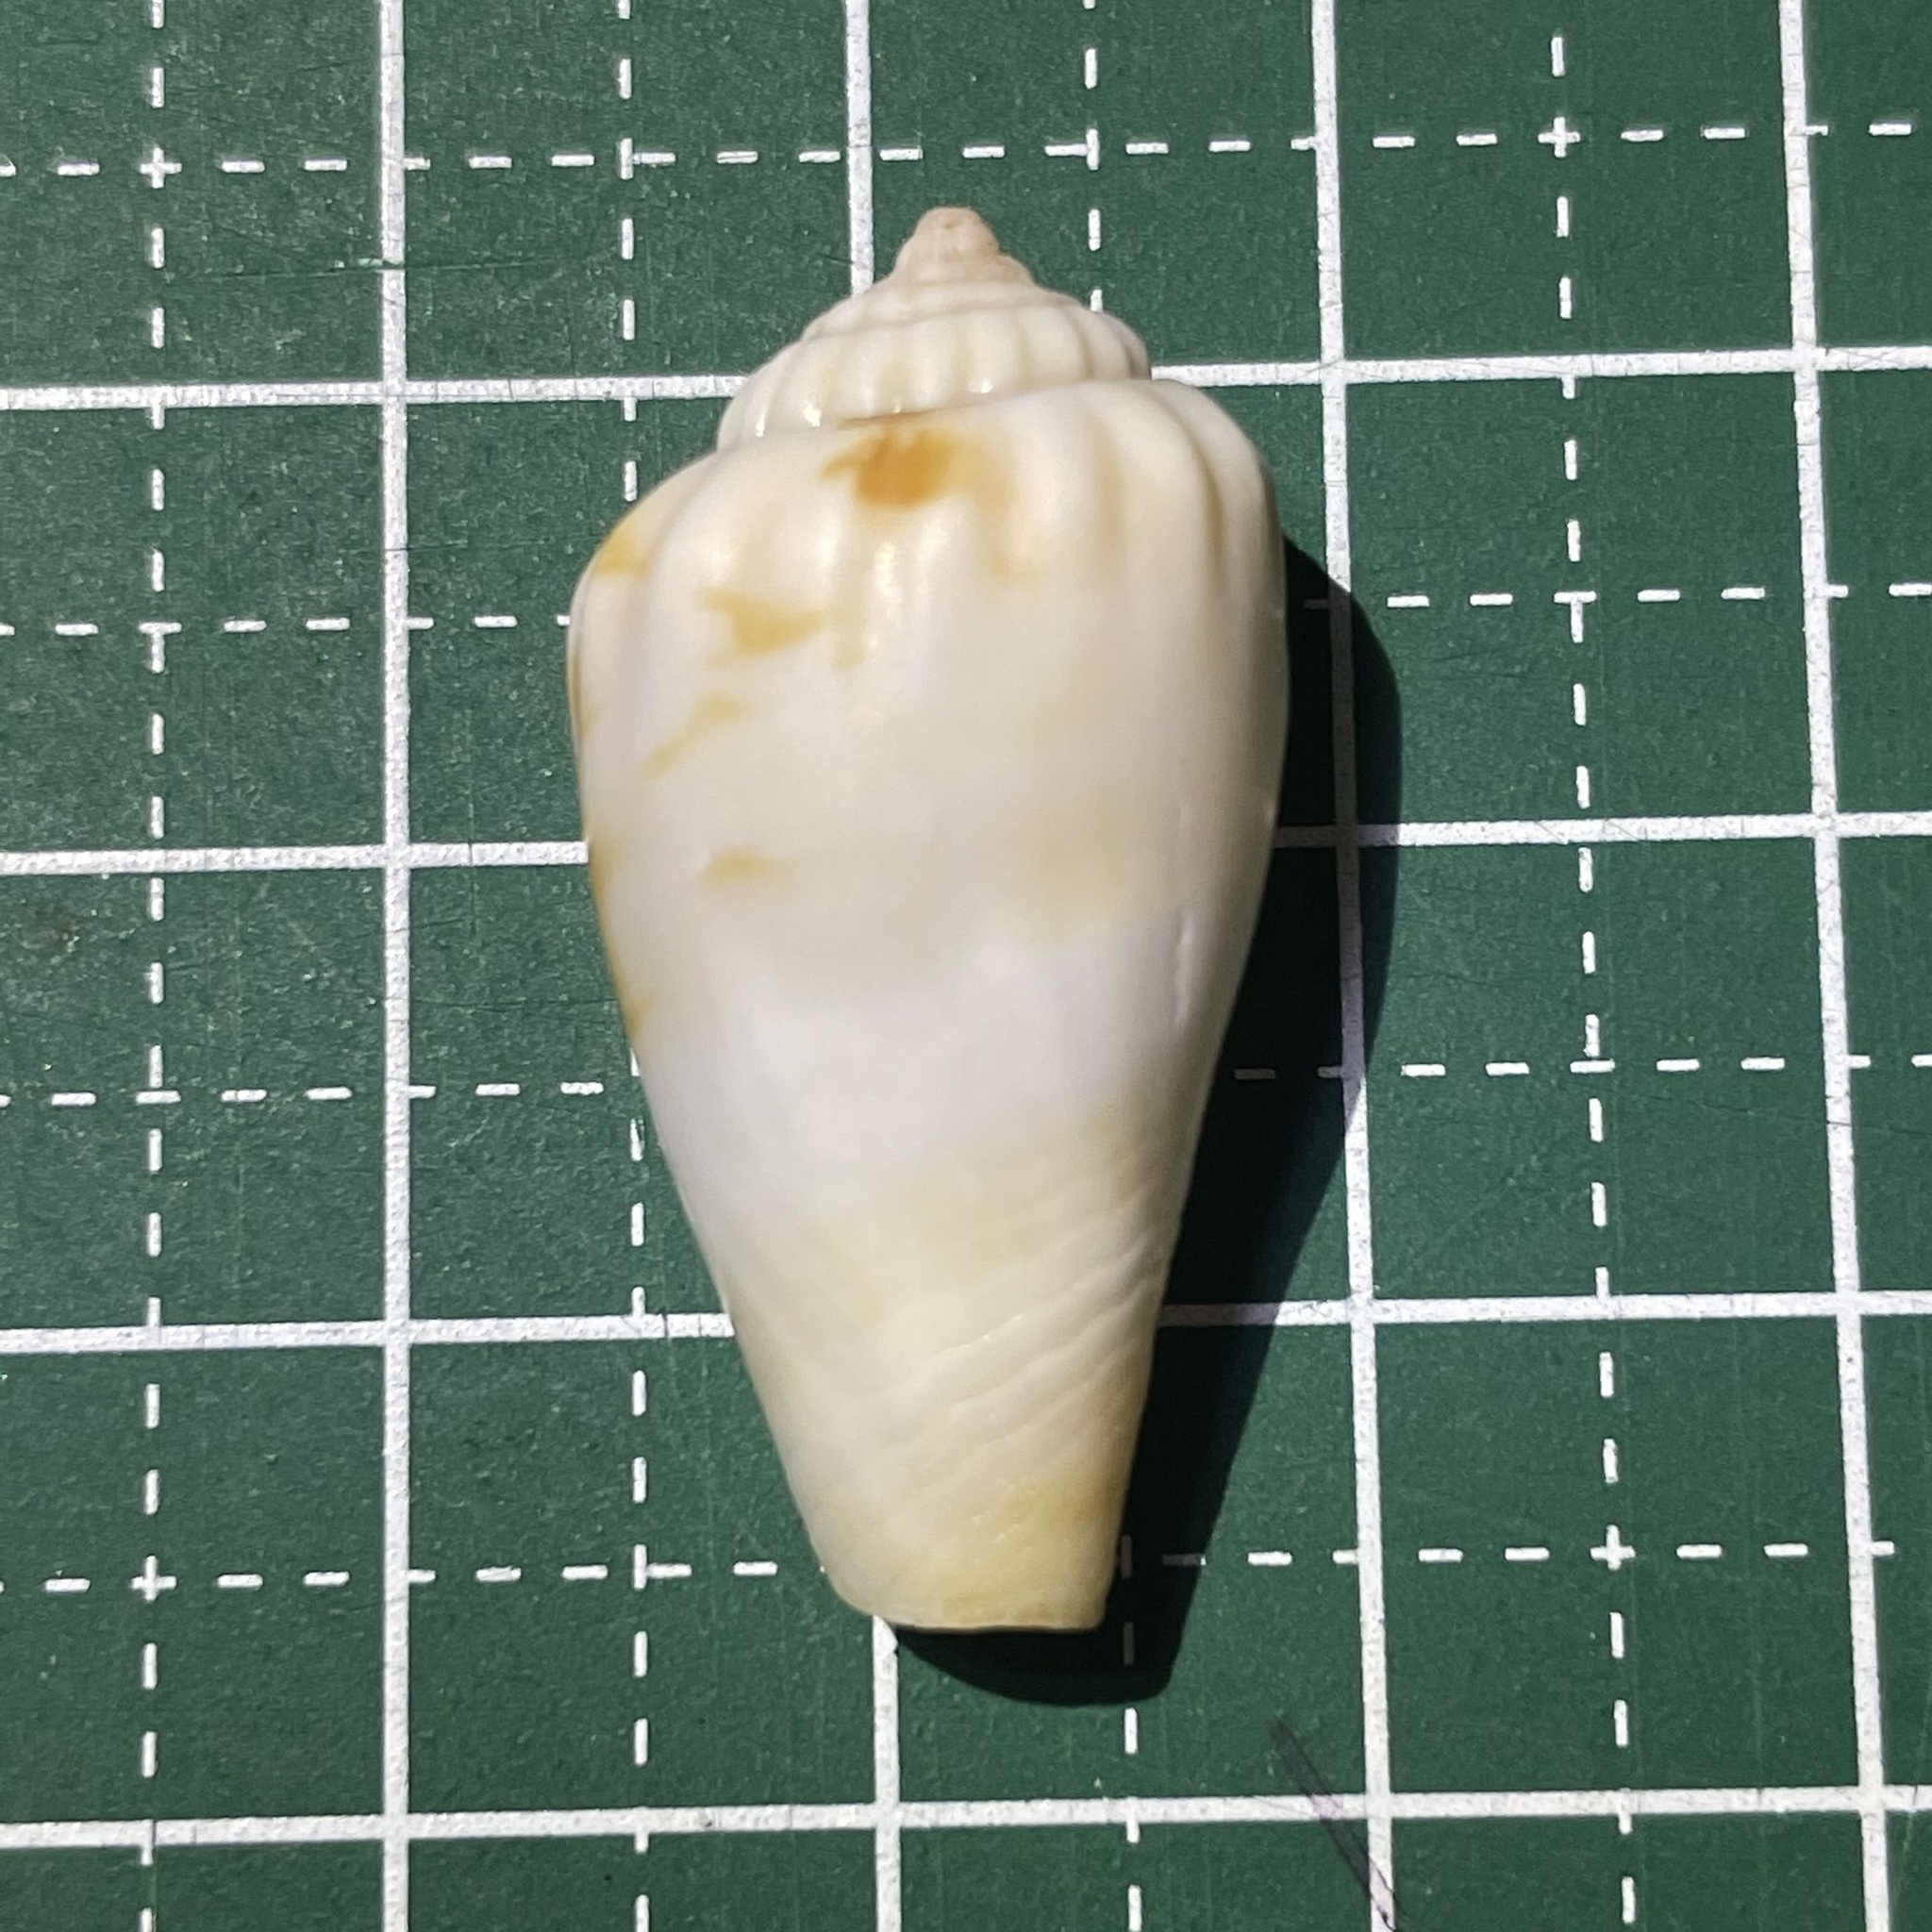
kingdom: Animalia
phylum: Mollusca
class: Gastropoda
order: Littorinimorpha
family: Strombidae
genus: Conomurex
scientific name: Conomurex luhuanus
